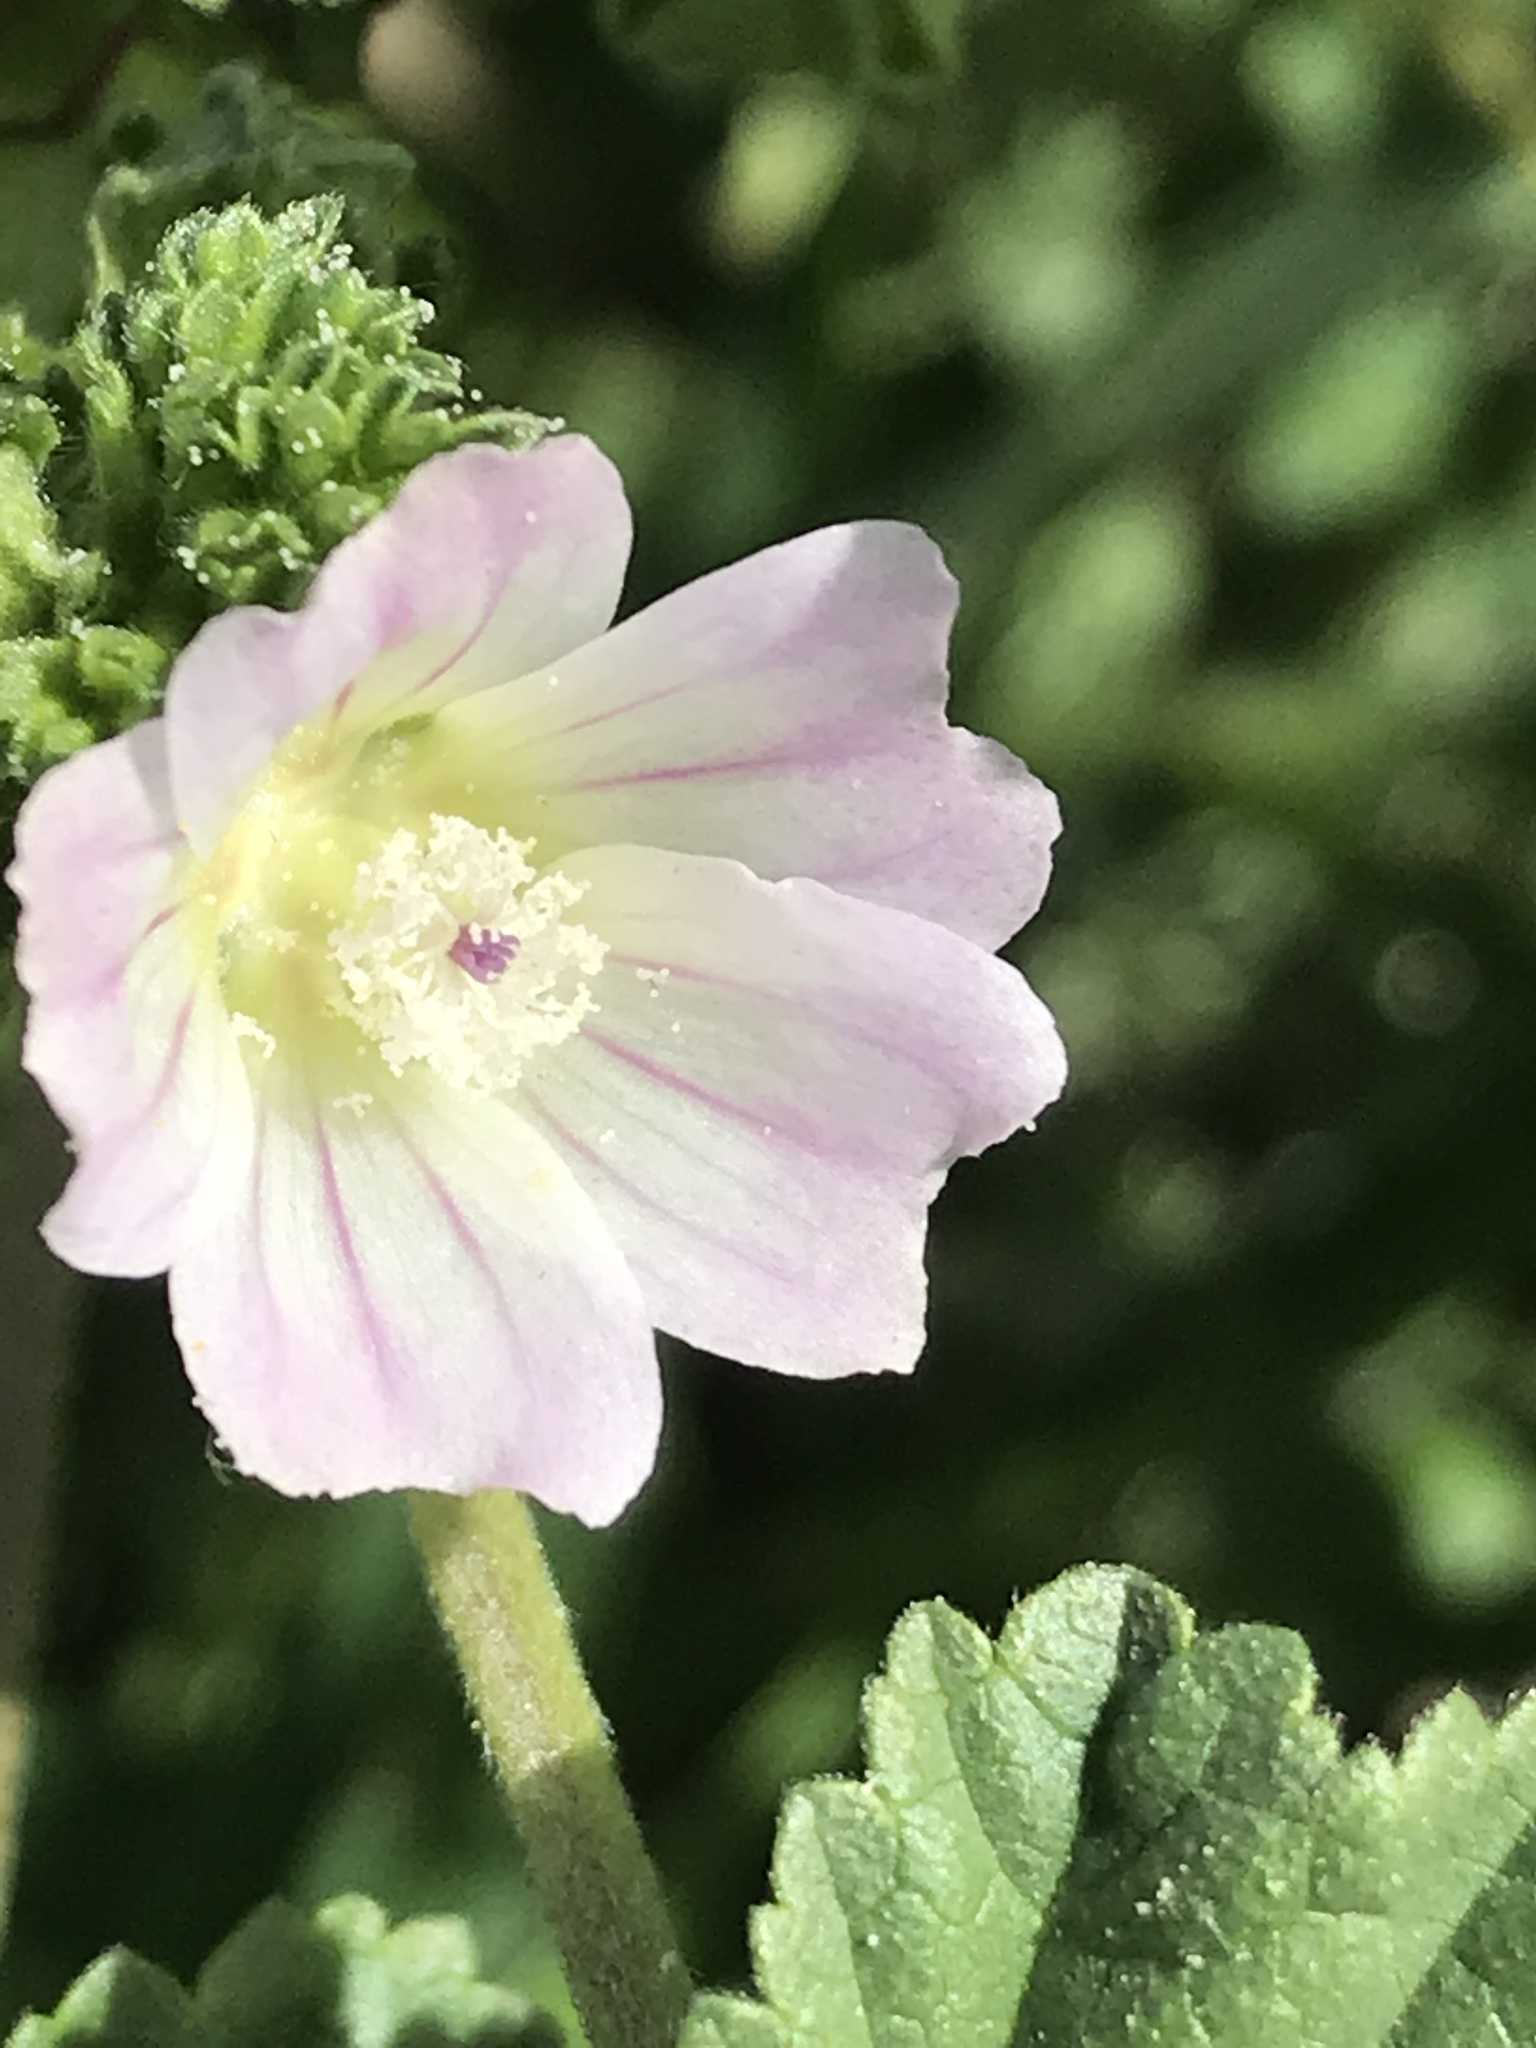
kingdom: Plantae
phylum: Tracheophyta
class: Magnoliopsida
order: Malvales
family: Malvaceae
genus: Malva
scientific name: Malva neglecta
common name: Common mallow
